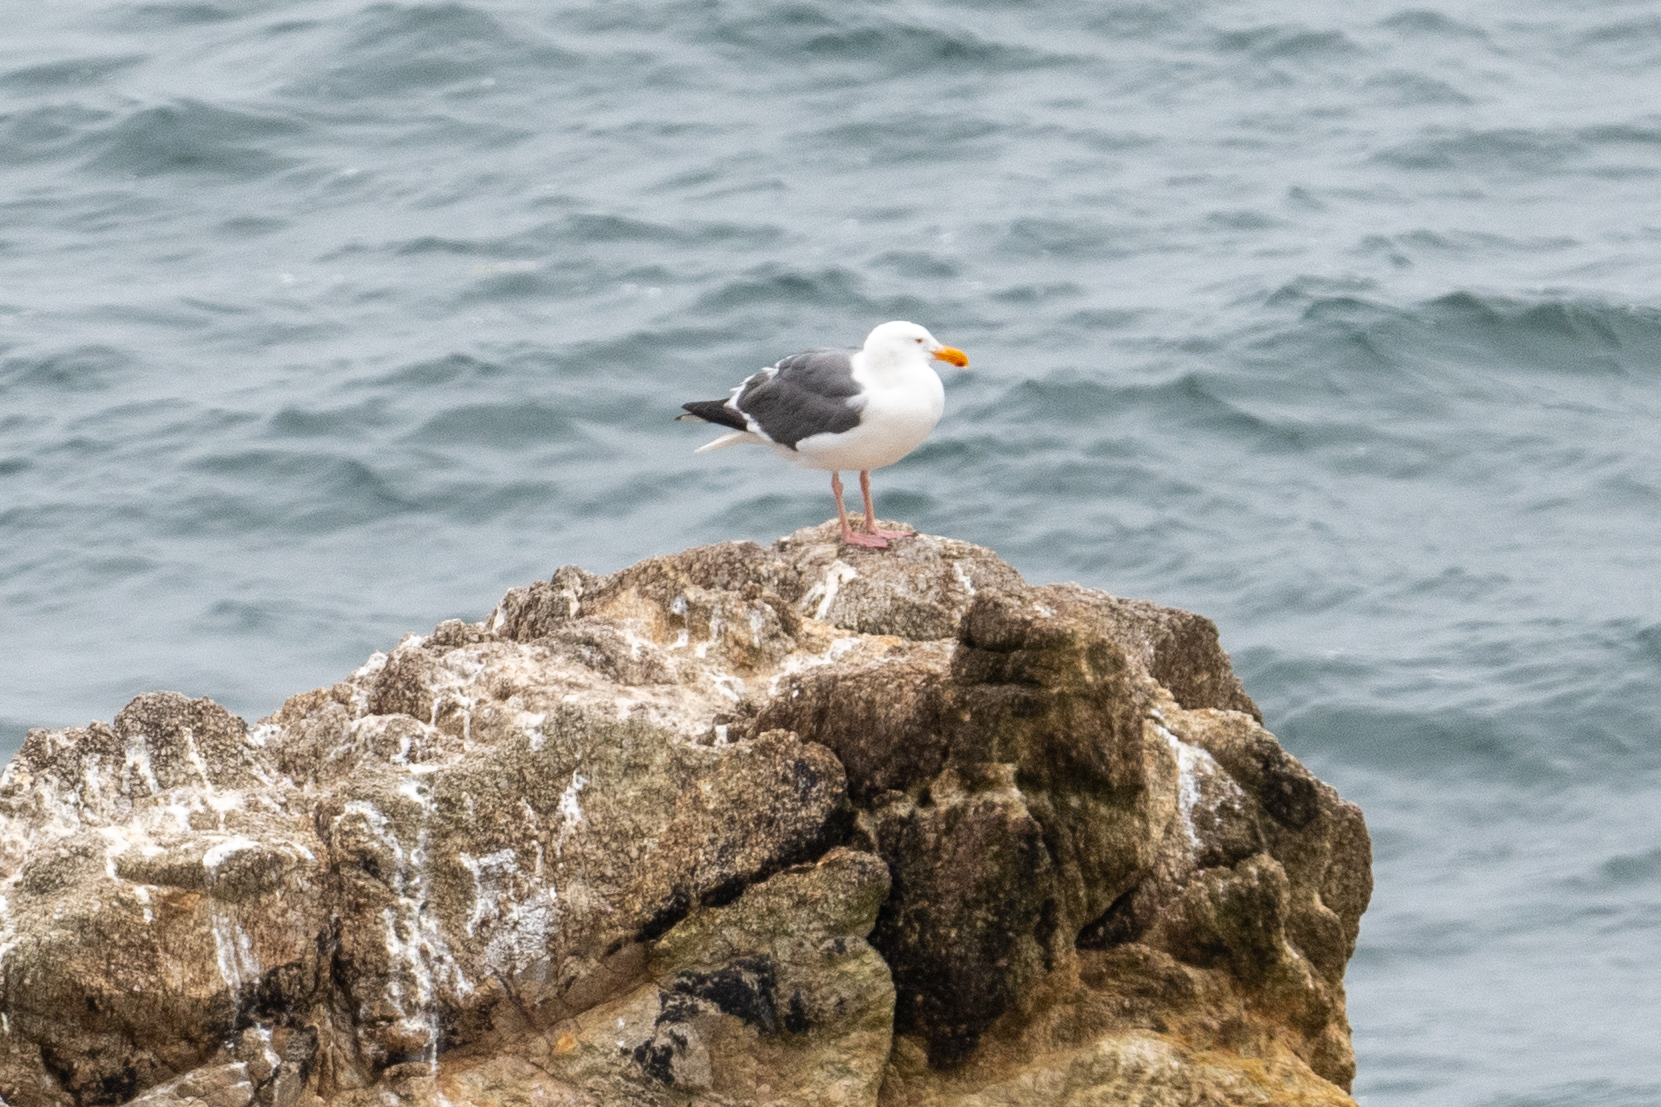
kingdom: Animalia
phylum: Chordata
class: Aves
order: Charadriiformes
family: Laridae
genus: Larus
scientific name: Larus occidentalis
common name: Western gull
